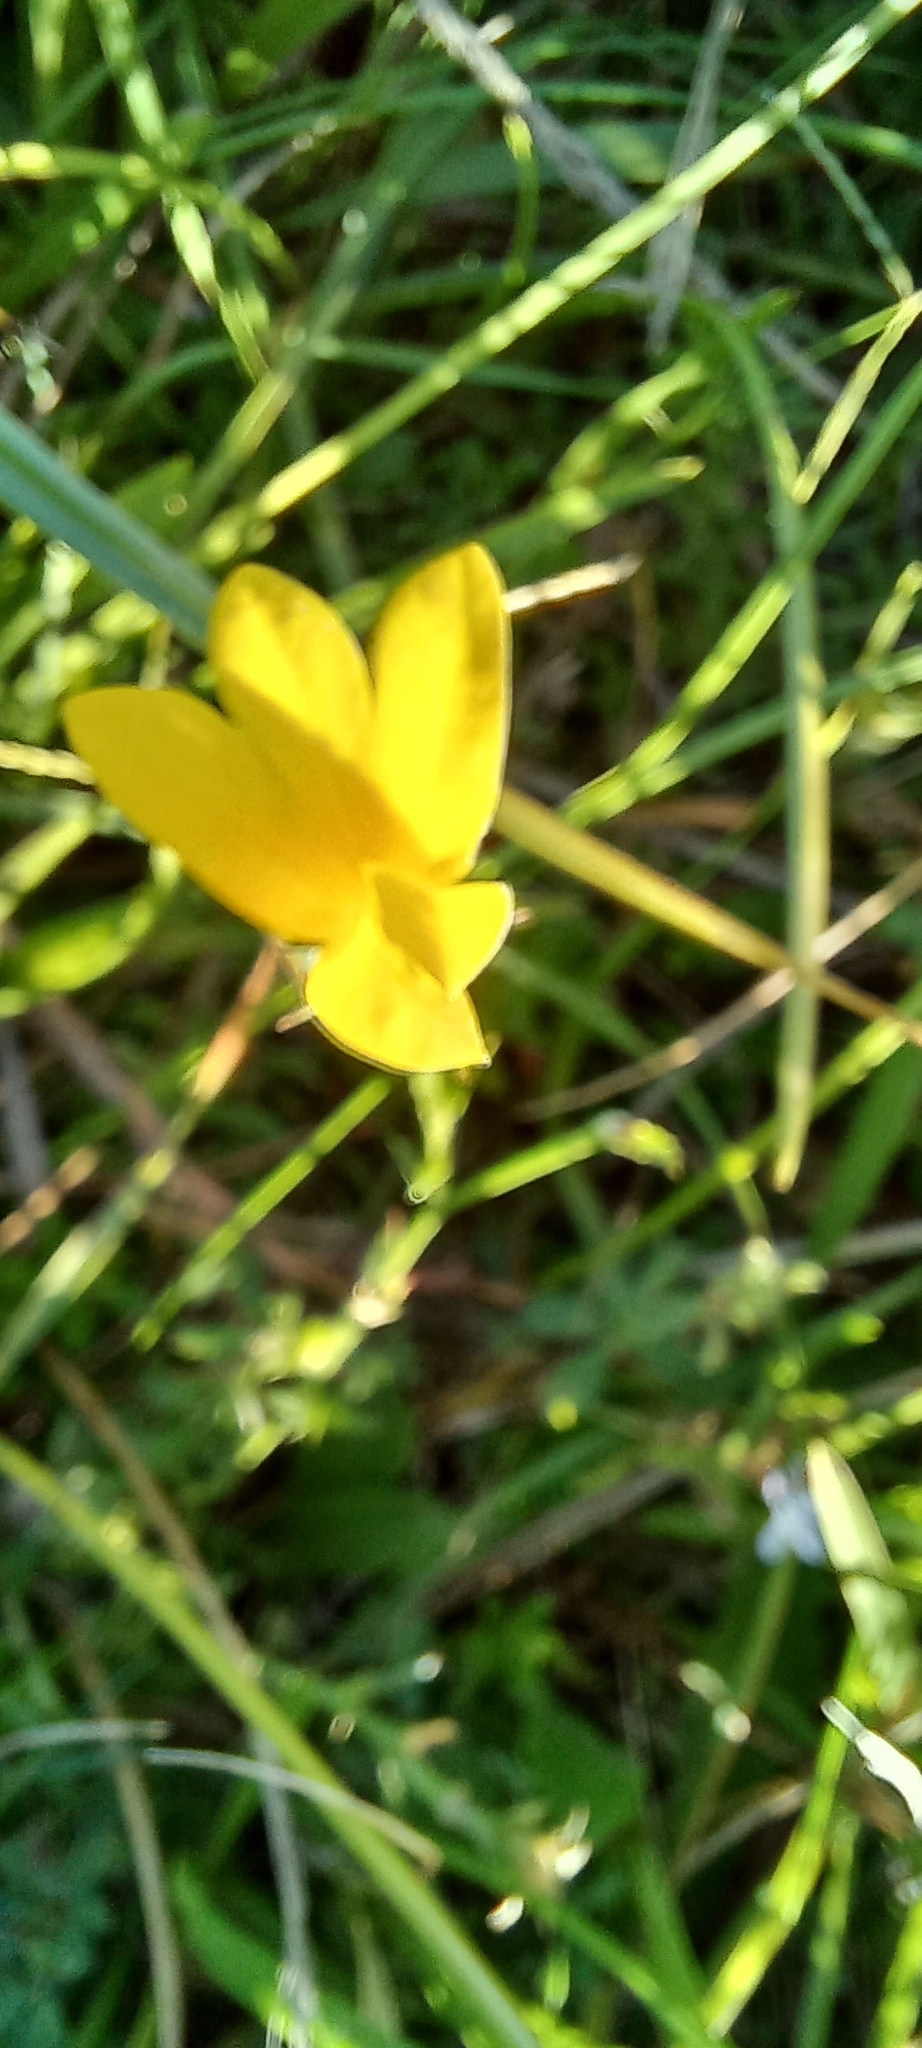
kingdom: Plantae
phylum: Tracheophyta
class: Magnoliopsida
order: Asterales
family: Campanulaceae
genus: Monopsis
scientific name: Monopsis lutea
